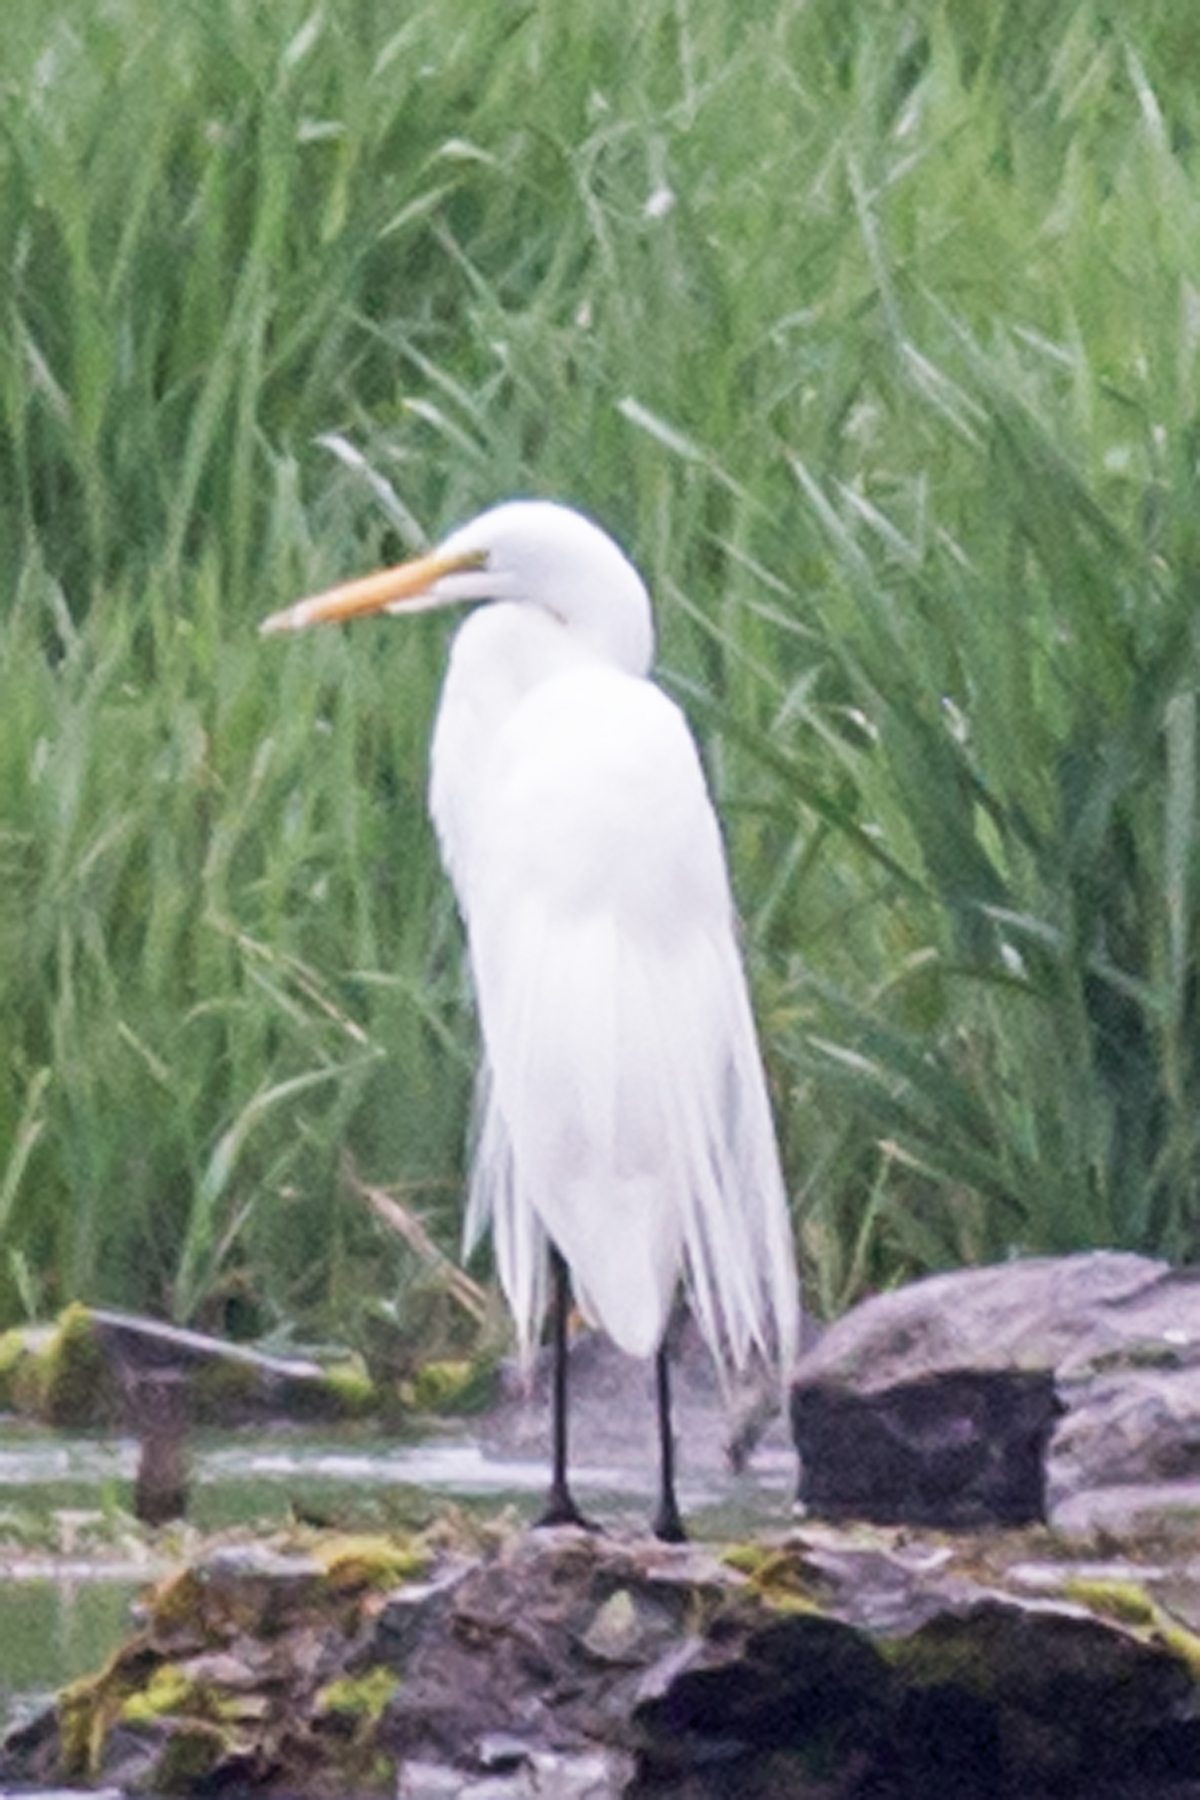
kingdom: Animalia
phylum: Chordata
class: Aves
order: Pelecaniformes
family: Ardeidae
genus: Ardea
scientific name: Ardea alba
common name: Great egret
